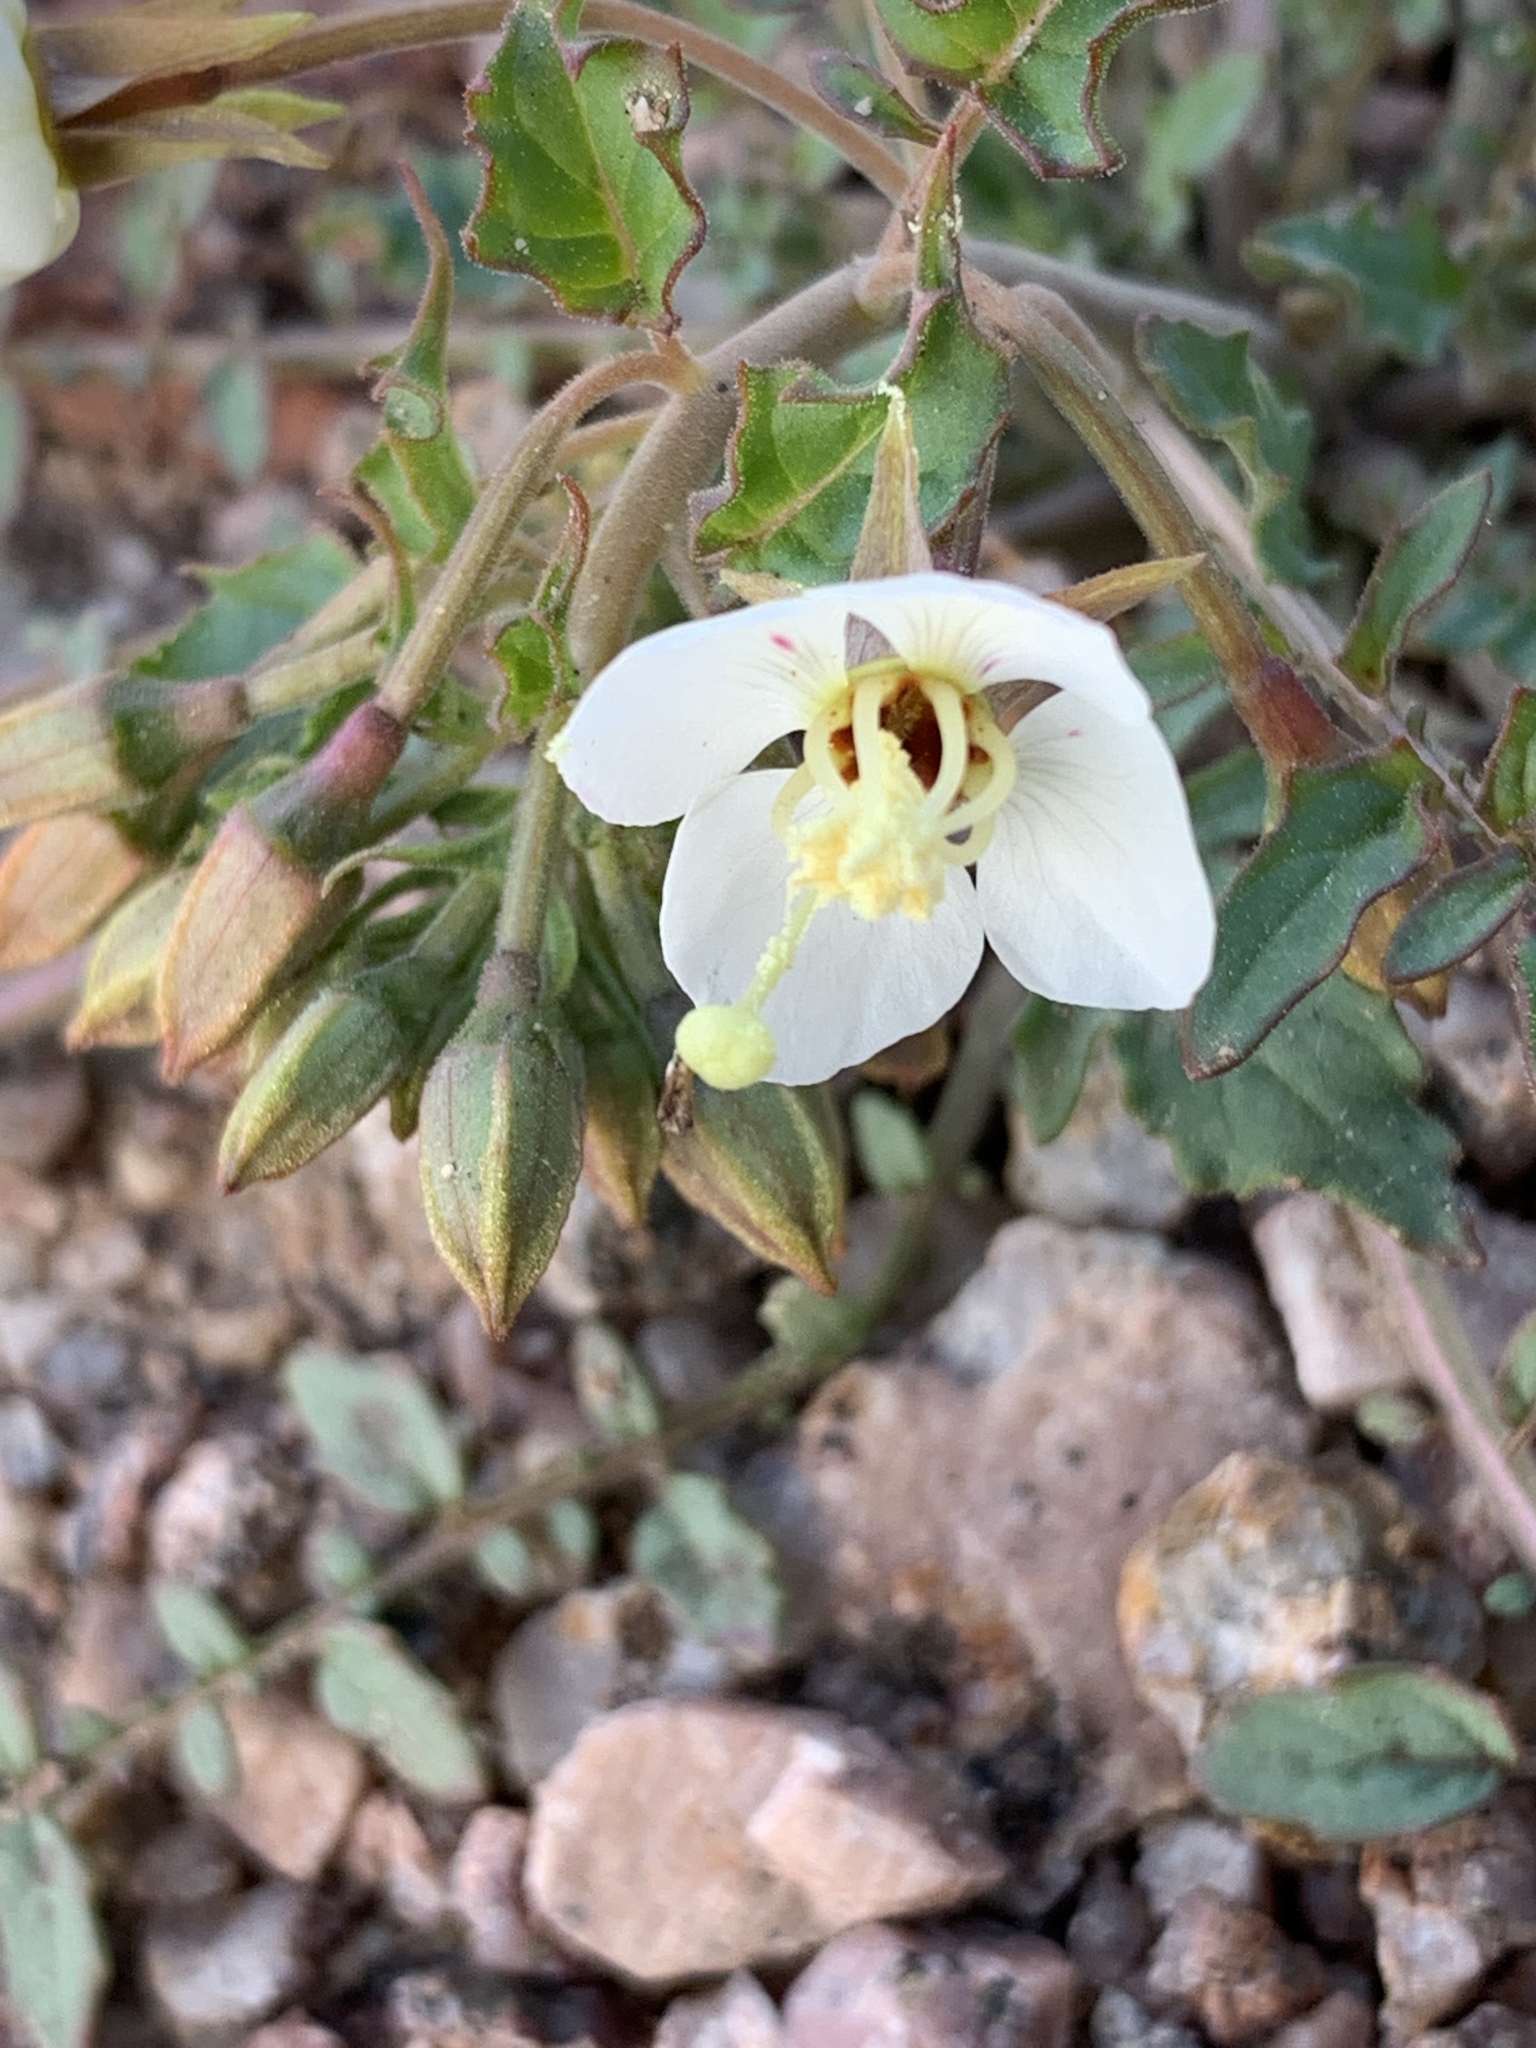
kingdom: Plantae
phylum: Tracheophyta
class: Magnoliopsida
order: Myrtales
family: Onagraceae
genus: Chylismia
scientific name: Chylismia claviformis
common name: Browneyes
